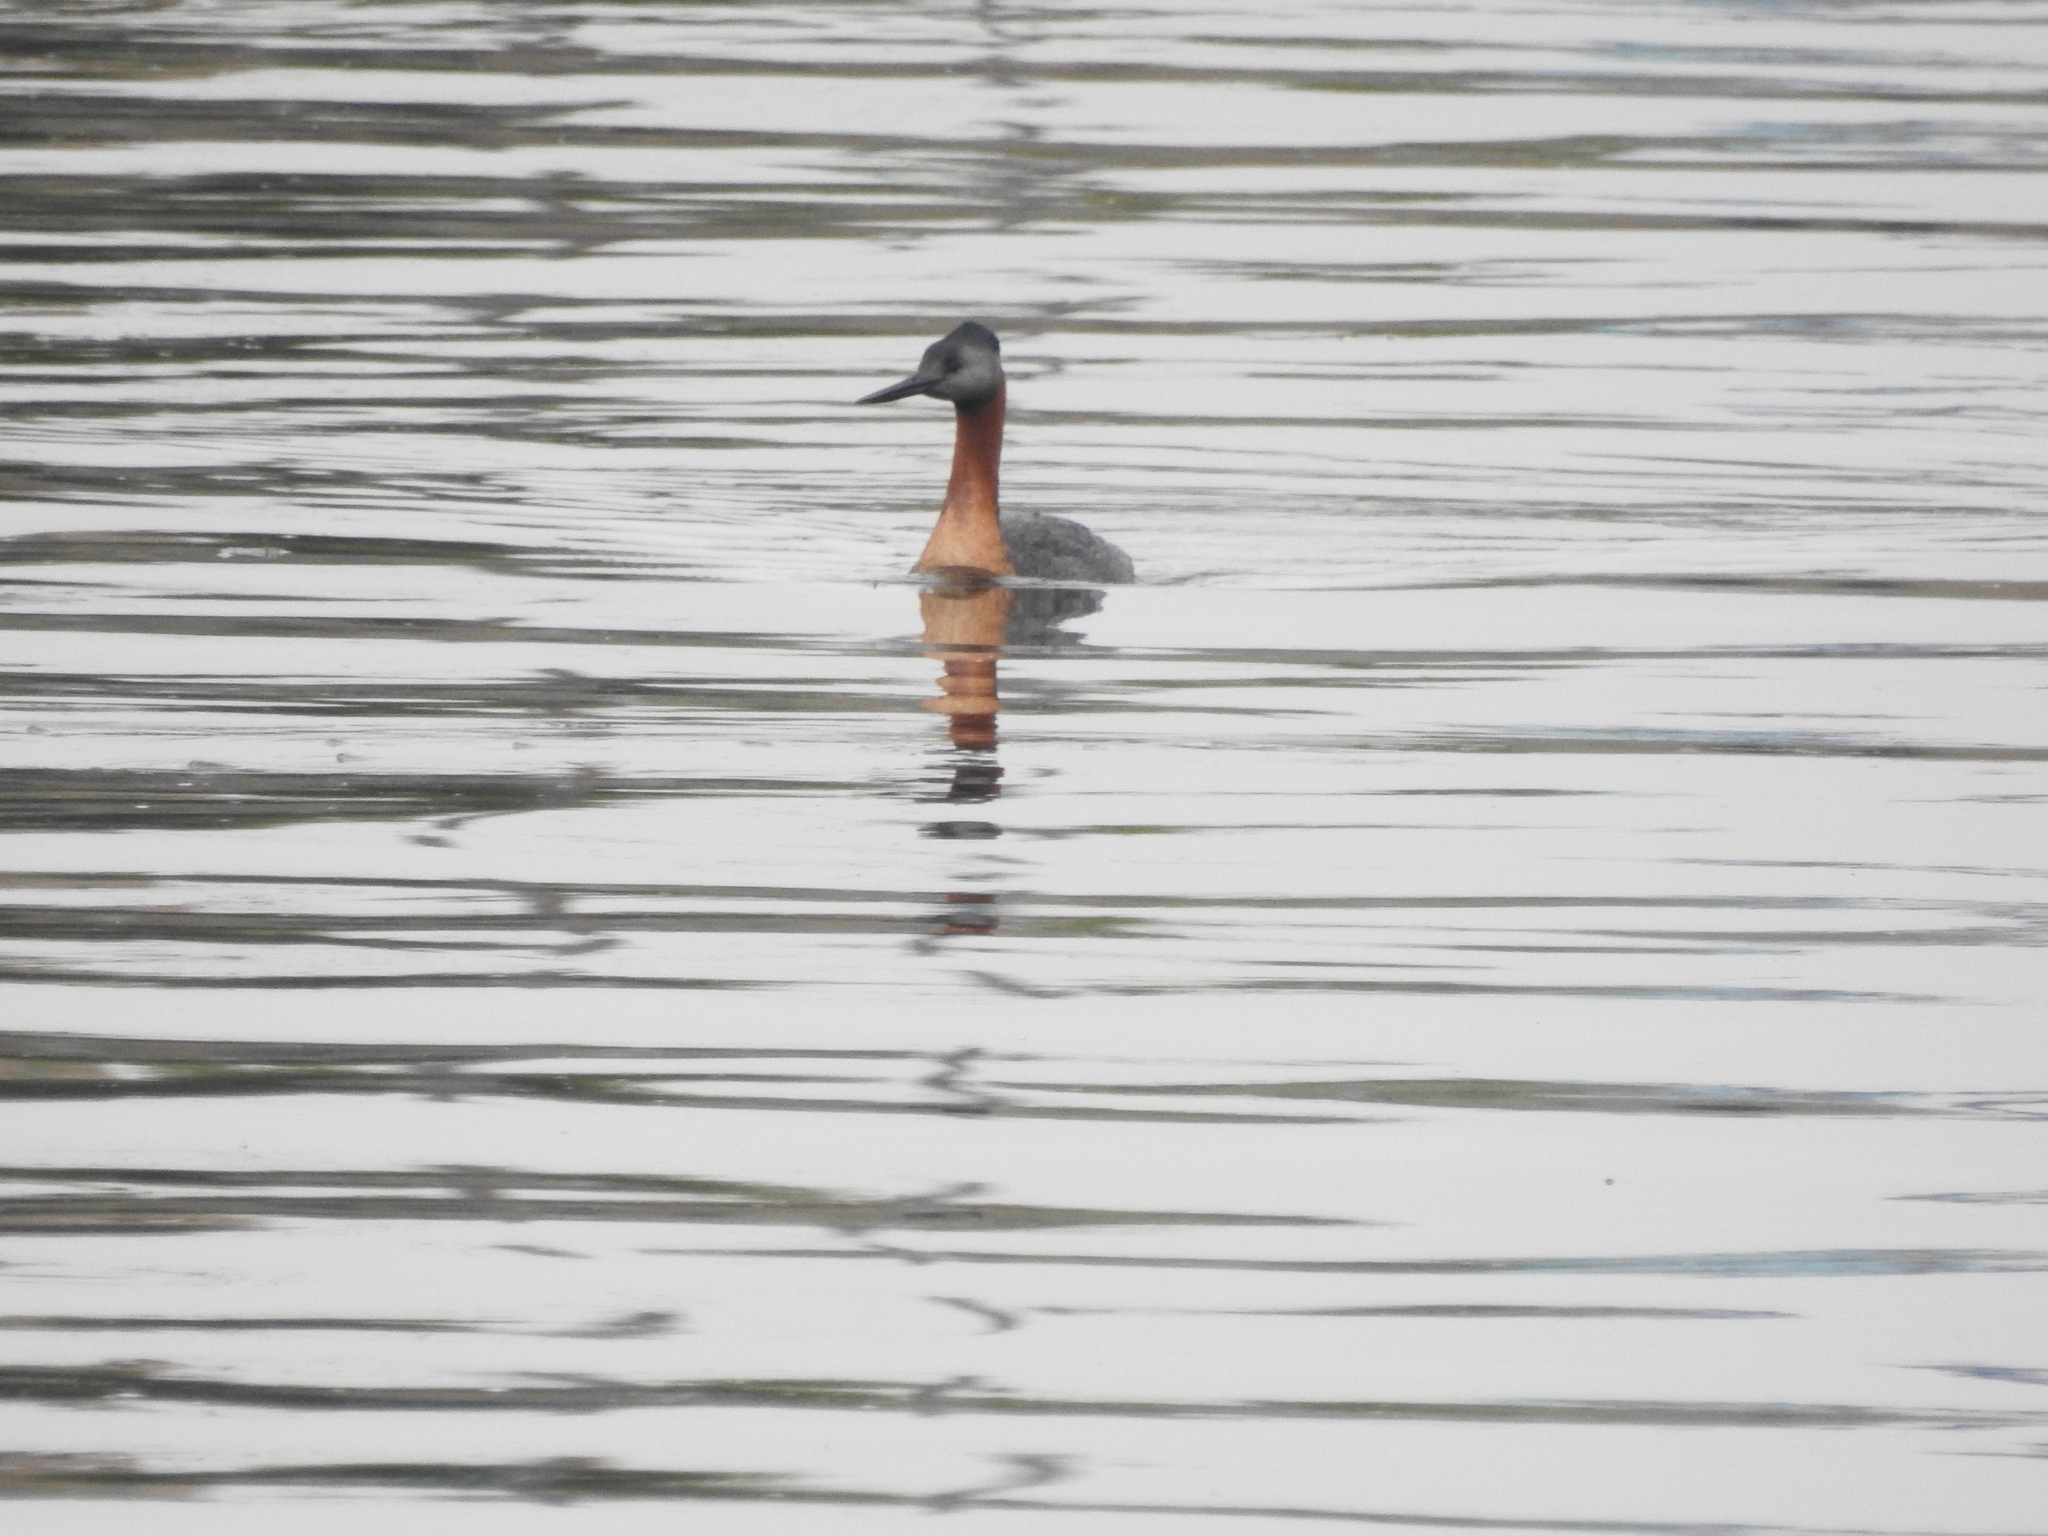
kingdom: Animalia
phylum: Chordata
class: Aves
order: Podicipediformes
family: Podicipedidae
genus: Podiceps
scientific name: Podiceps major
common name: Great grebe
